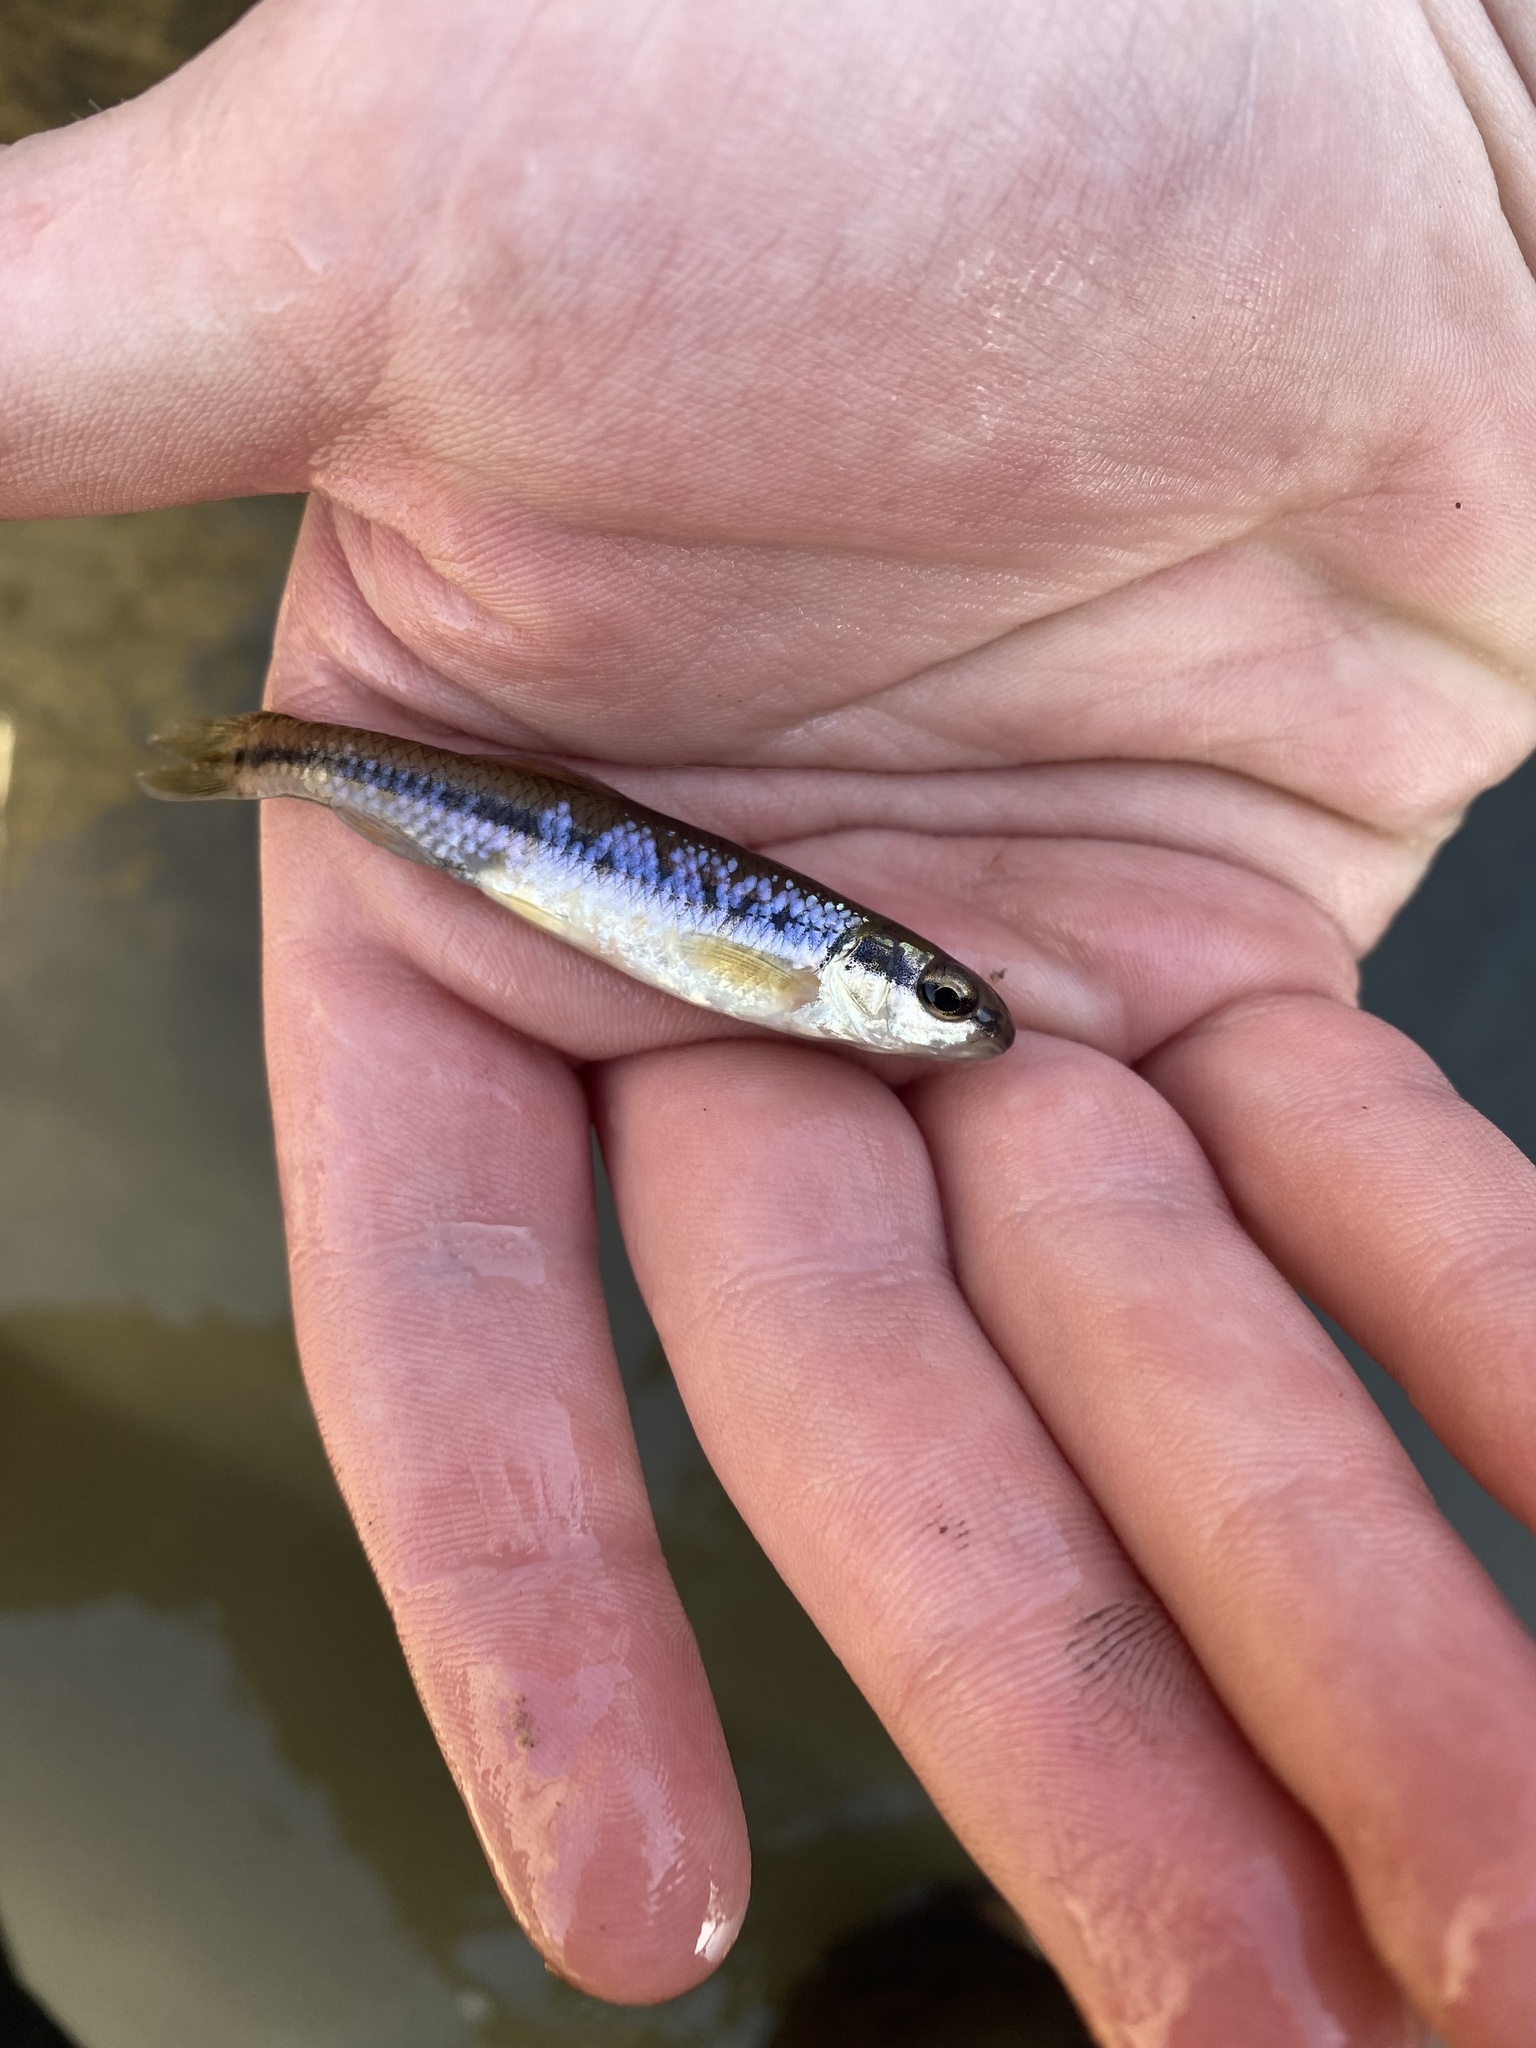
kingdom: Animalia
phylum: Chordata
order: Cypriniformes
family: Cyprinidae
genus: Pimephales
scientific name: Pimephales notatus
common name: Bluntnose minnow
